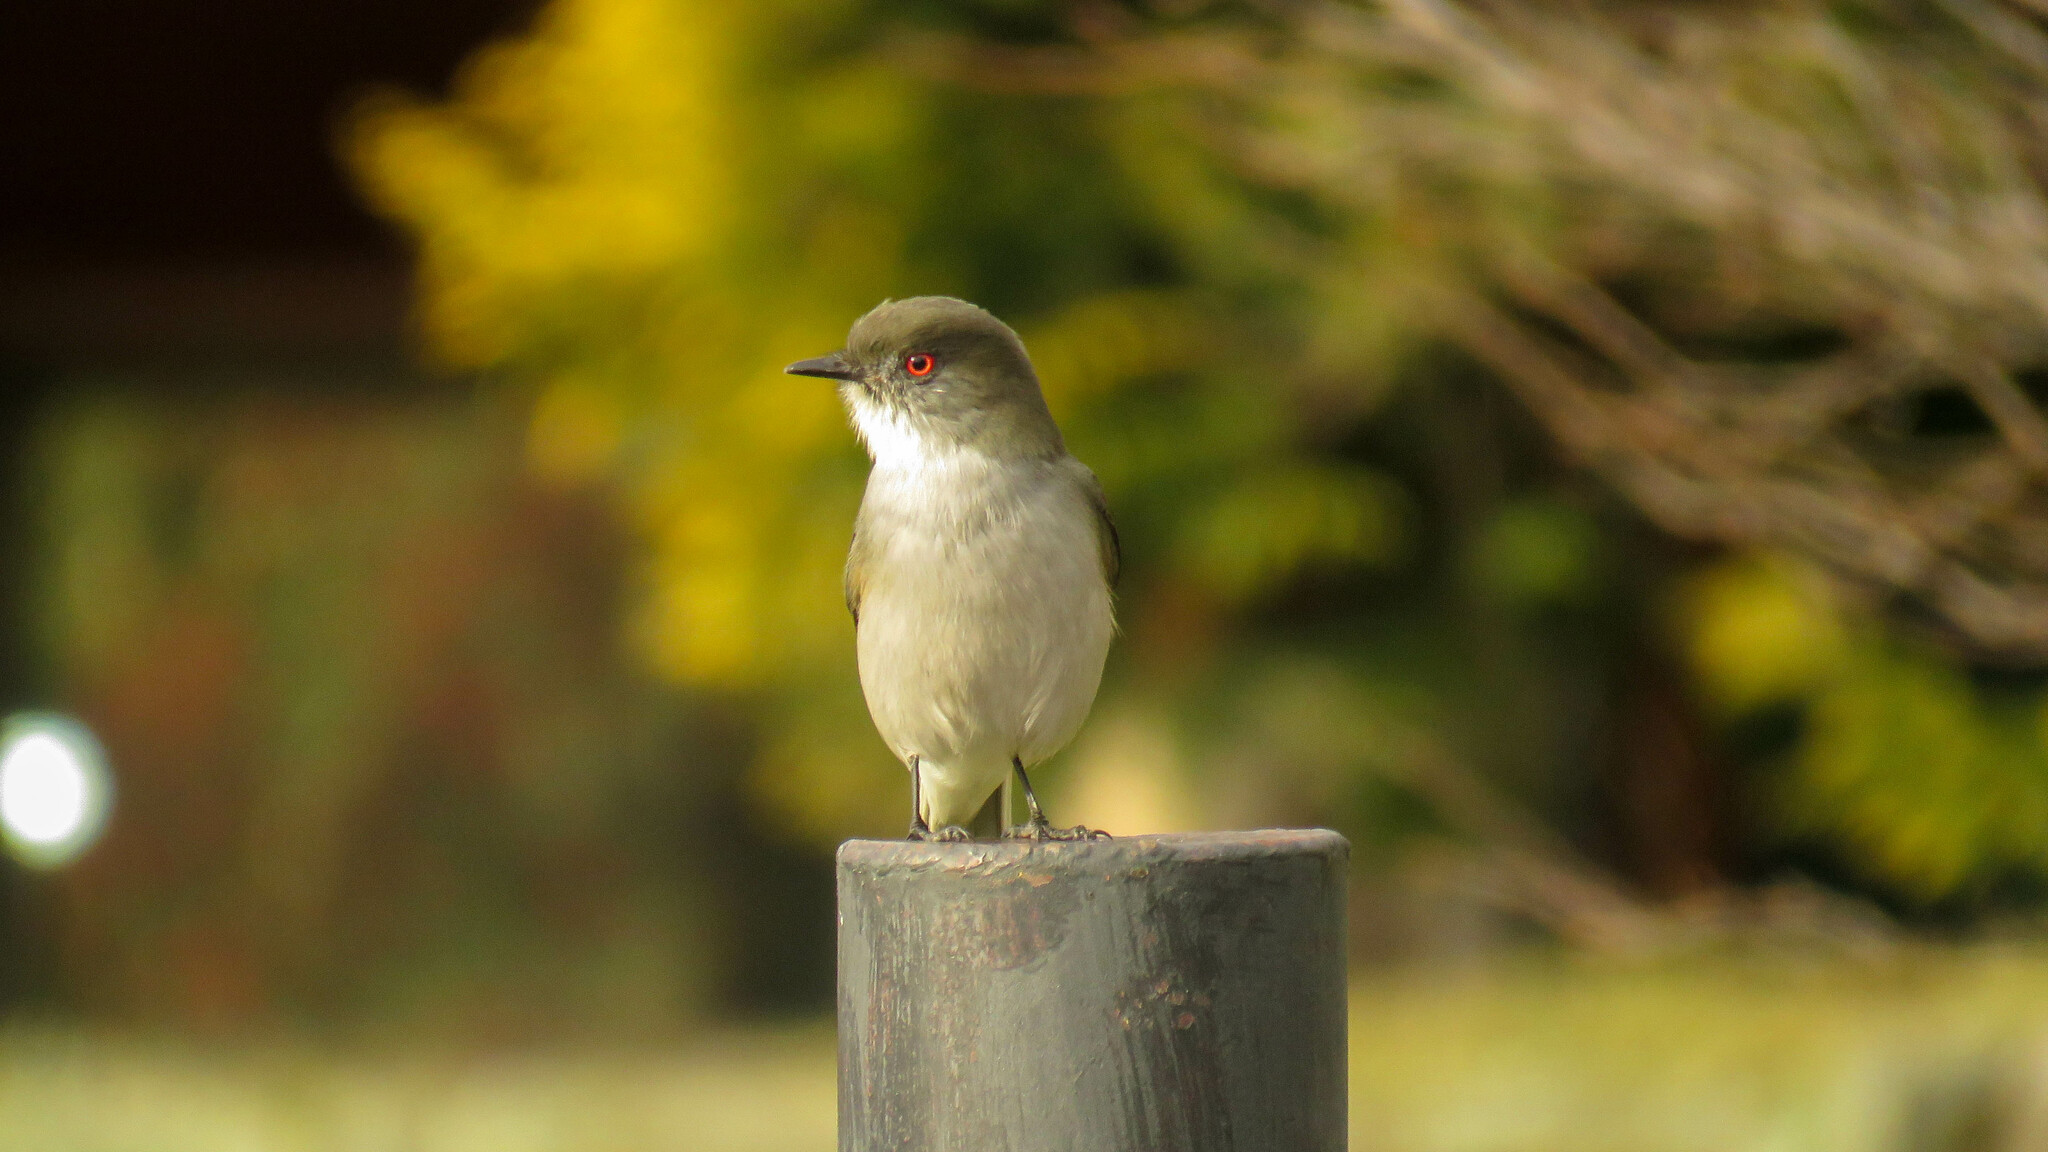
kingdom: Animalia
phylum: Chordata
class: Aves
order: Passeriformes
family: Tyrannidae
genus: Xolmis
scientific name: Xolmis pyrope
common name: Fire-eyed diucon
